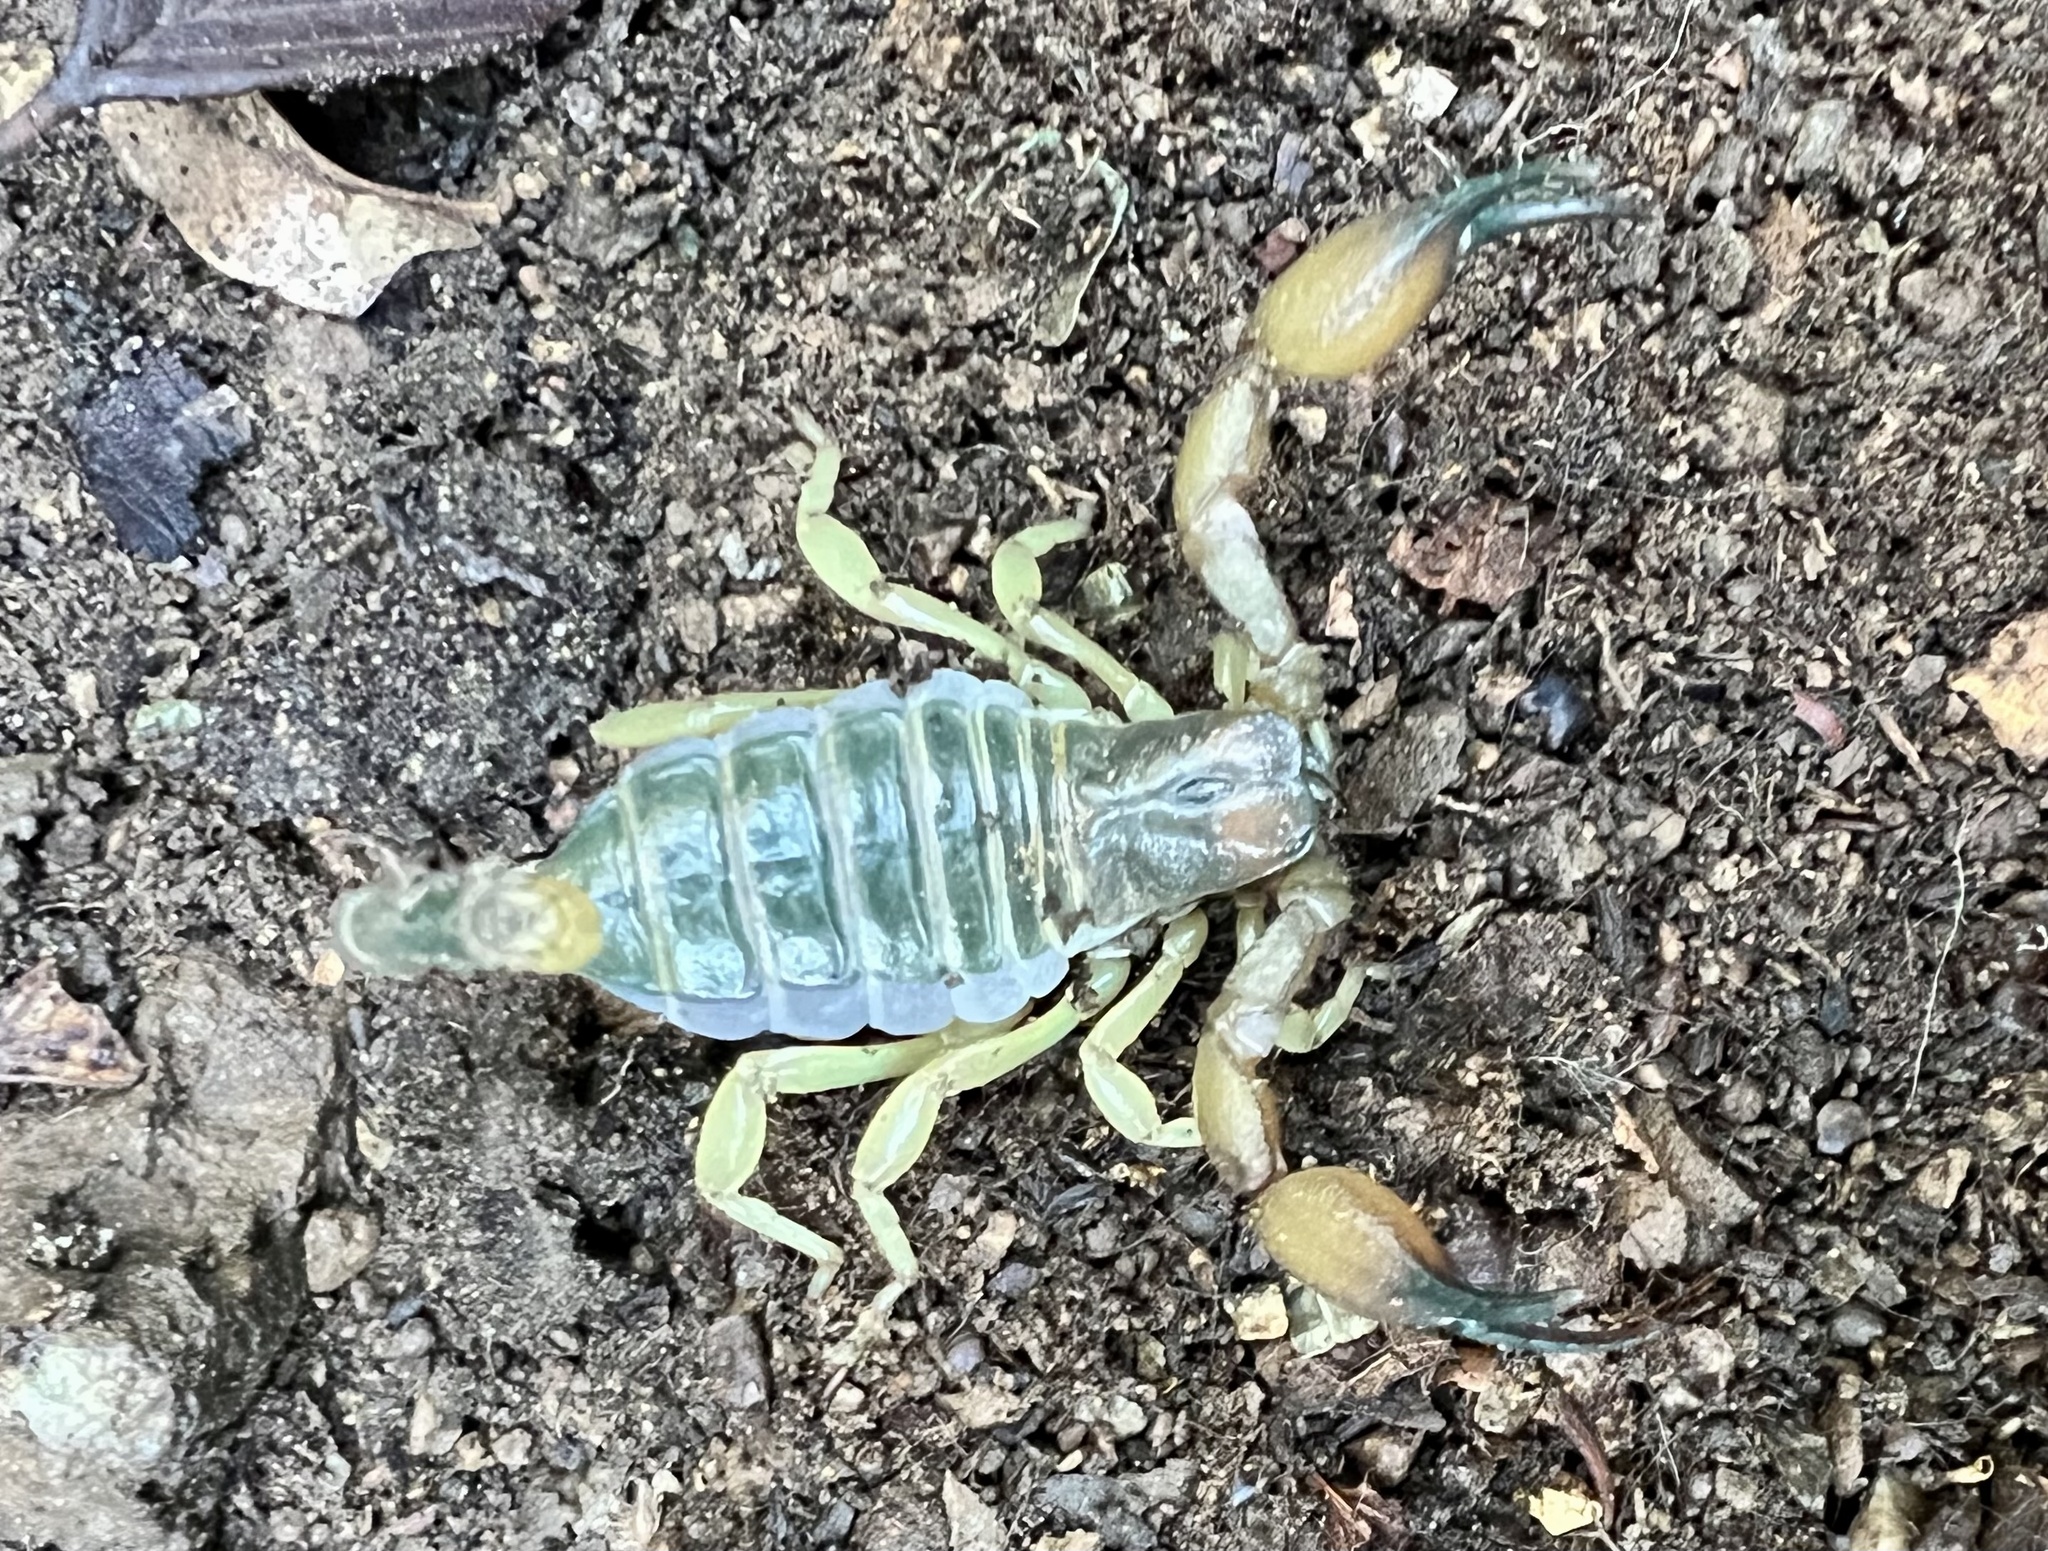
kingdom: Animalia
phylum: Arthropoda
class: Arachnida
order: Scorpiones
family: Chactidae
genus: Anuroctonus
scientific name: Anuroctonus pococki
